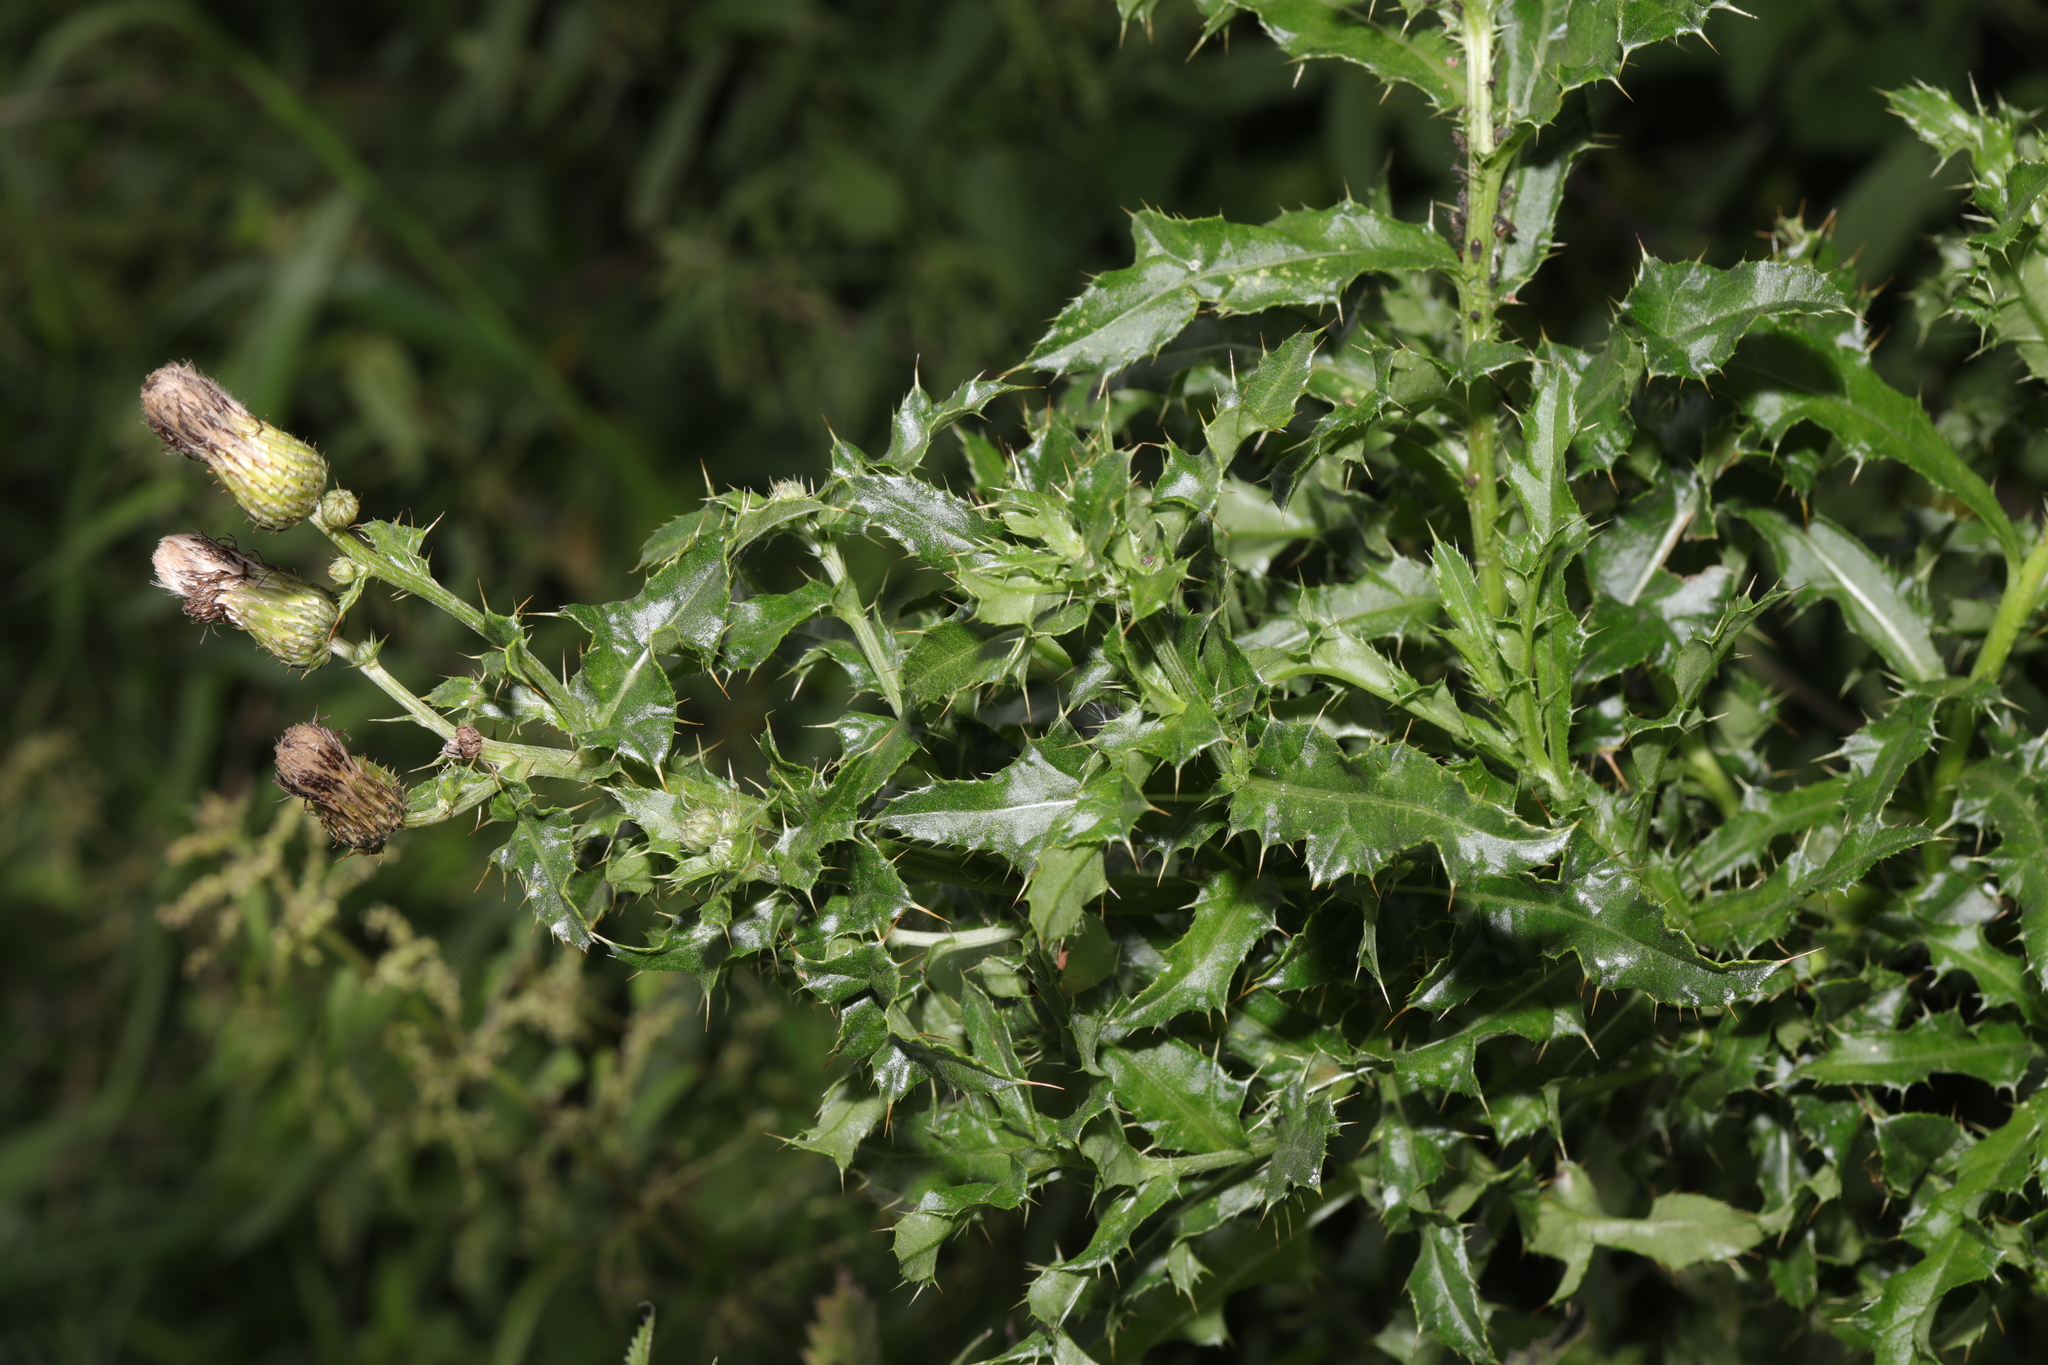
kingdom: Plantae
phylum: Tracheophyta
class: Magnoliopsida
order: Asterales
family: Asteraceae
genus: Cirsium
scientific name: Cirsium arvense
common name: Creeping thistle
